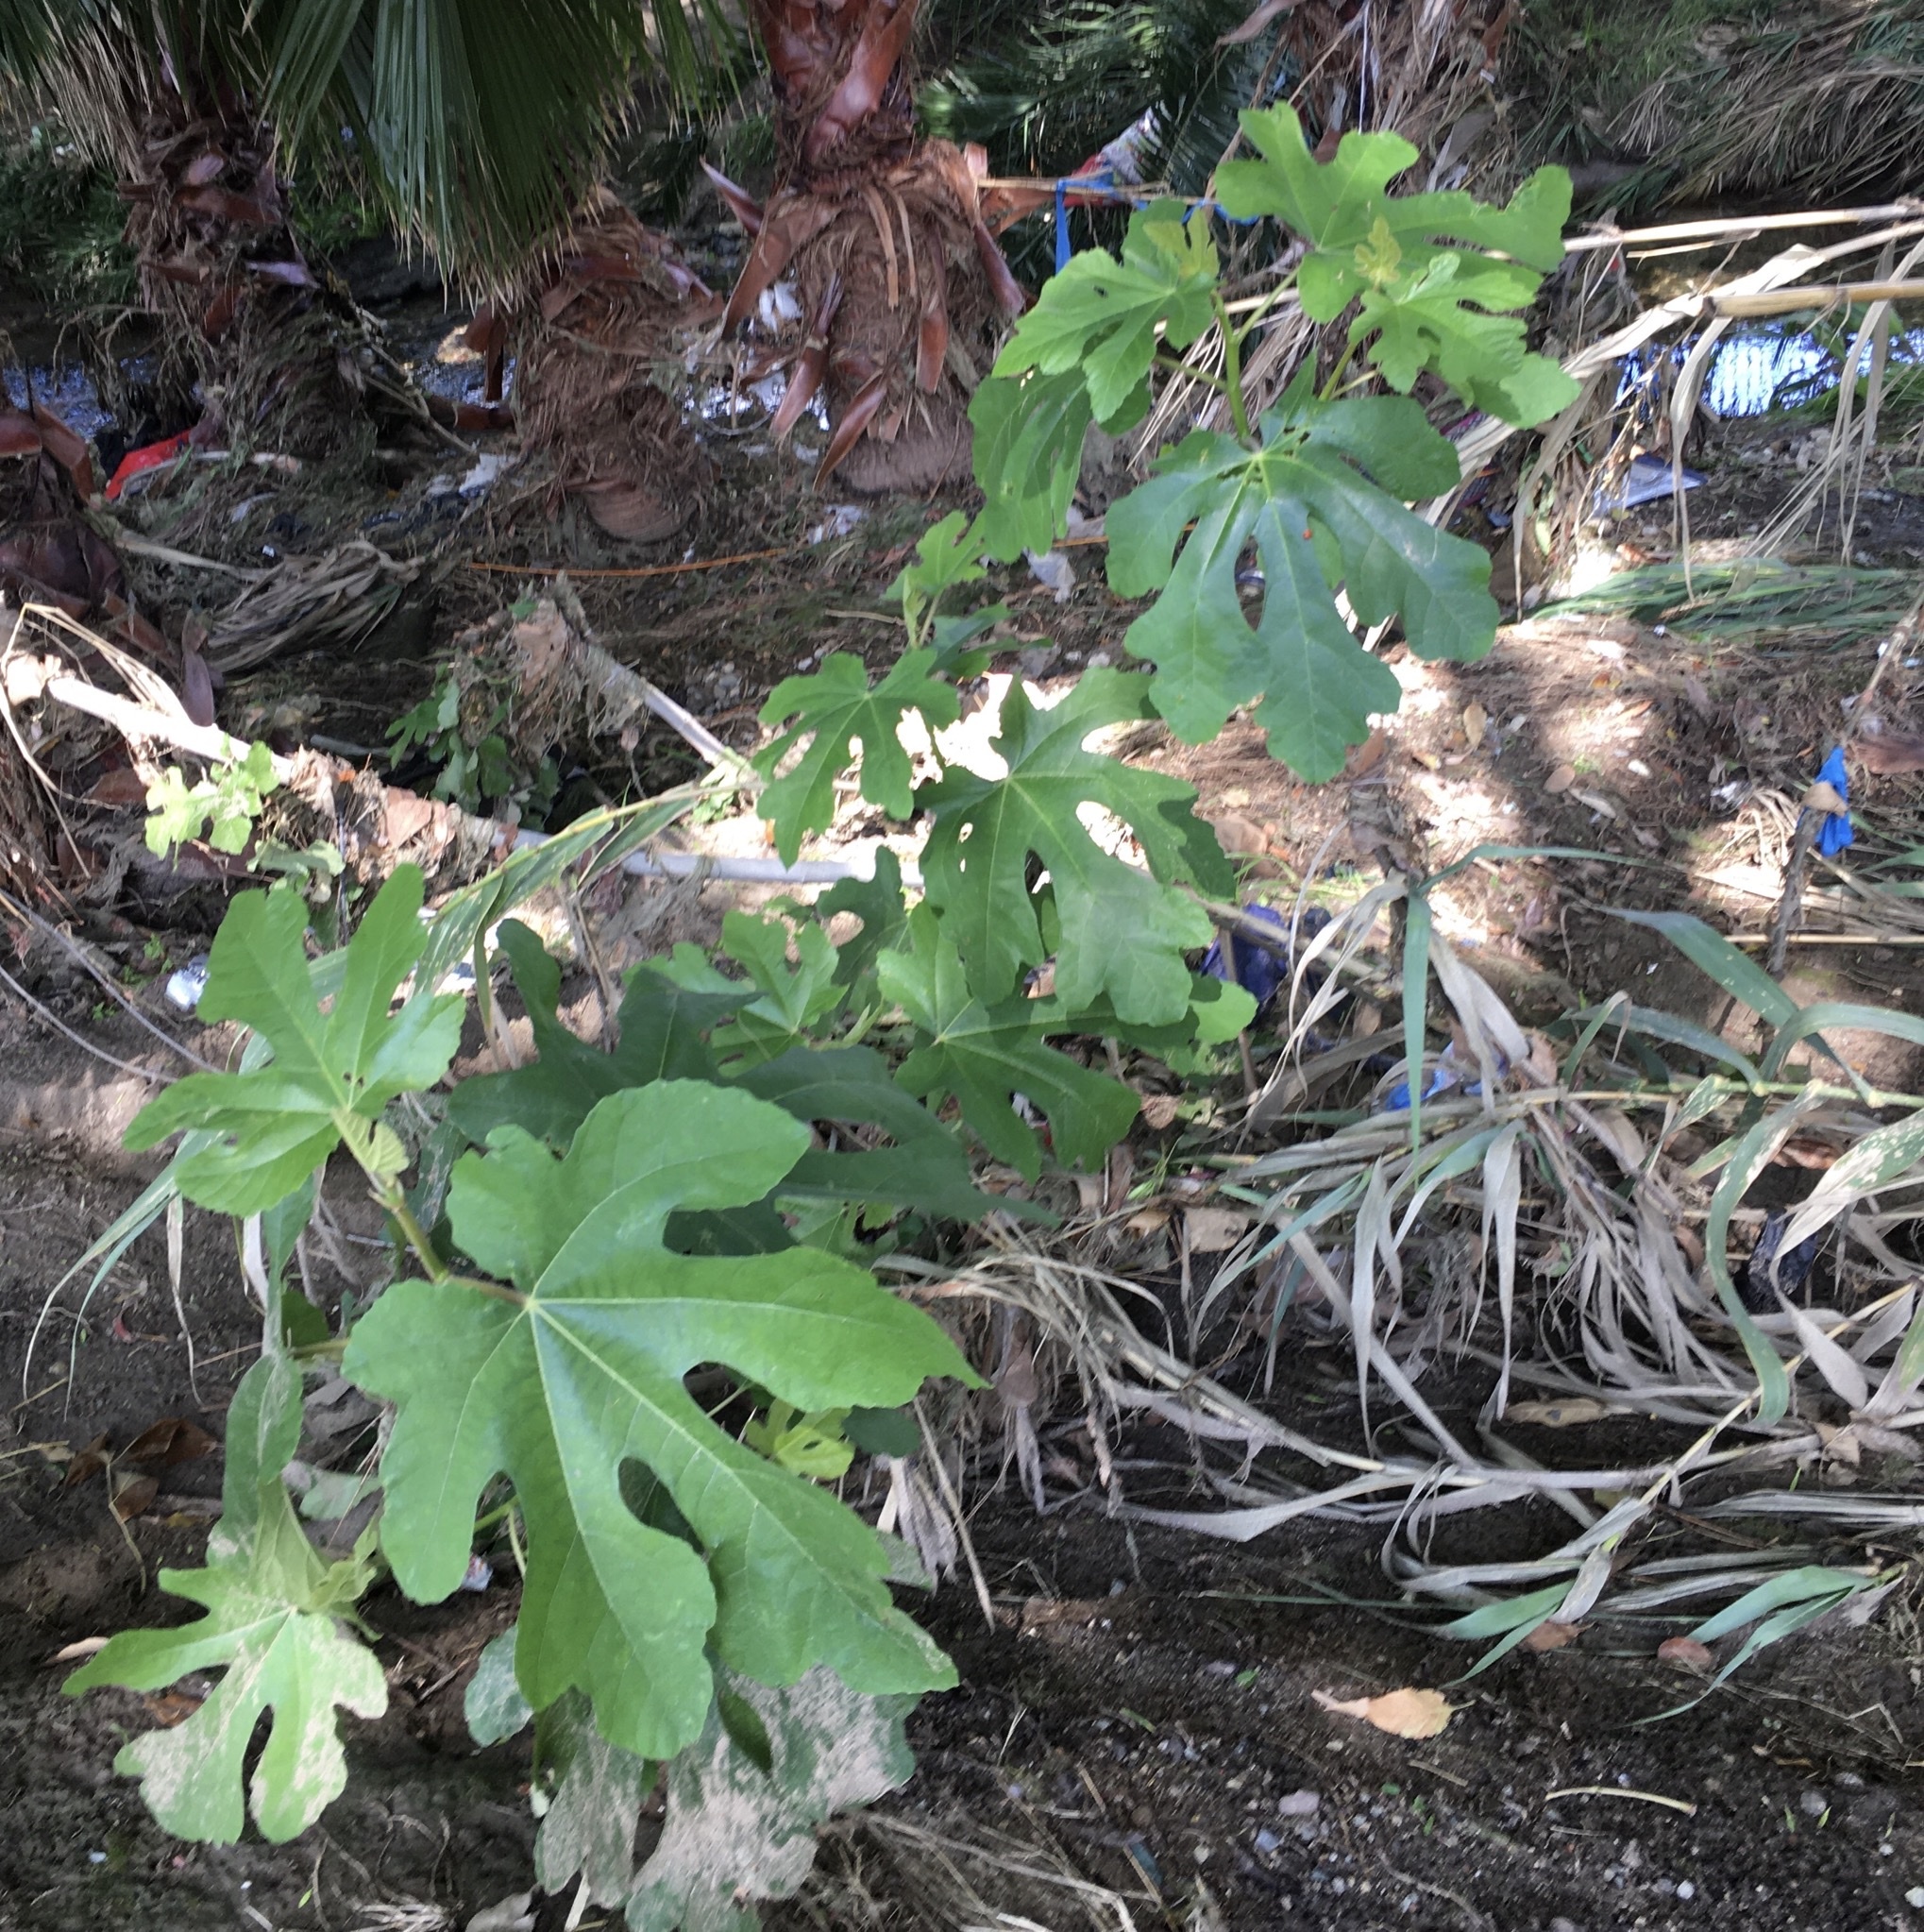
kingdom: Plantae
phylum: Tracheophyta
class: Magnoliopsida
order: Rosales
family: Moraceae
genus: Ficus
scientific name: Ficus carica
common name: Fig
